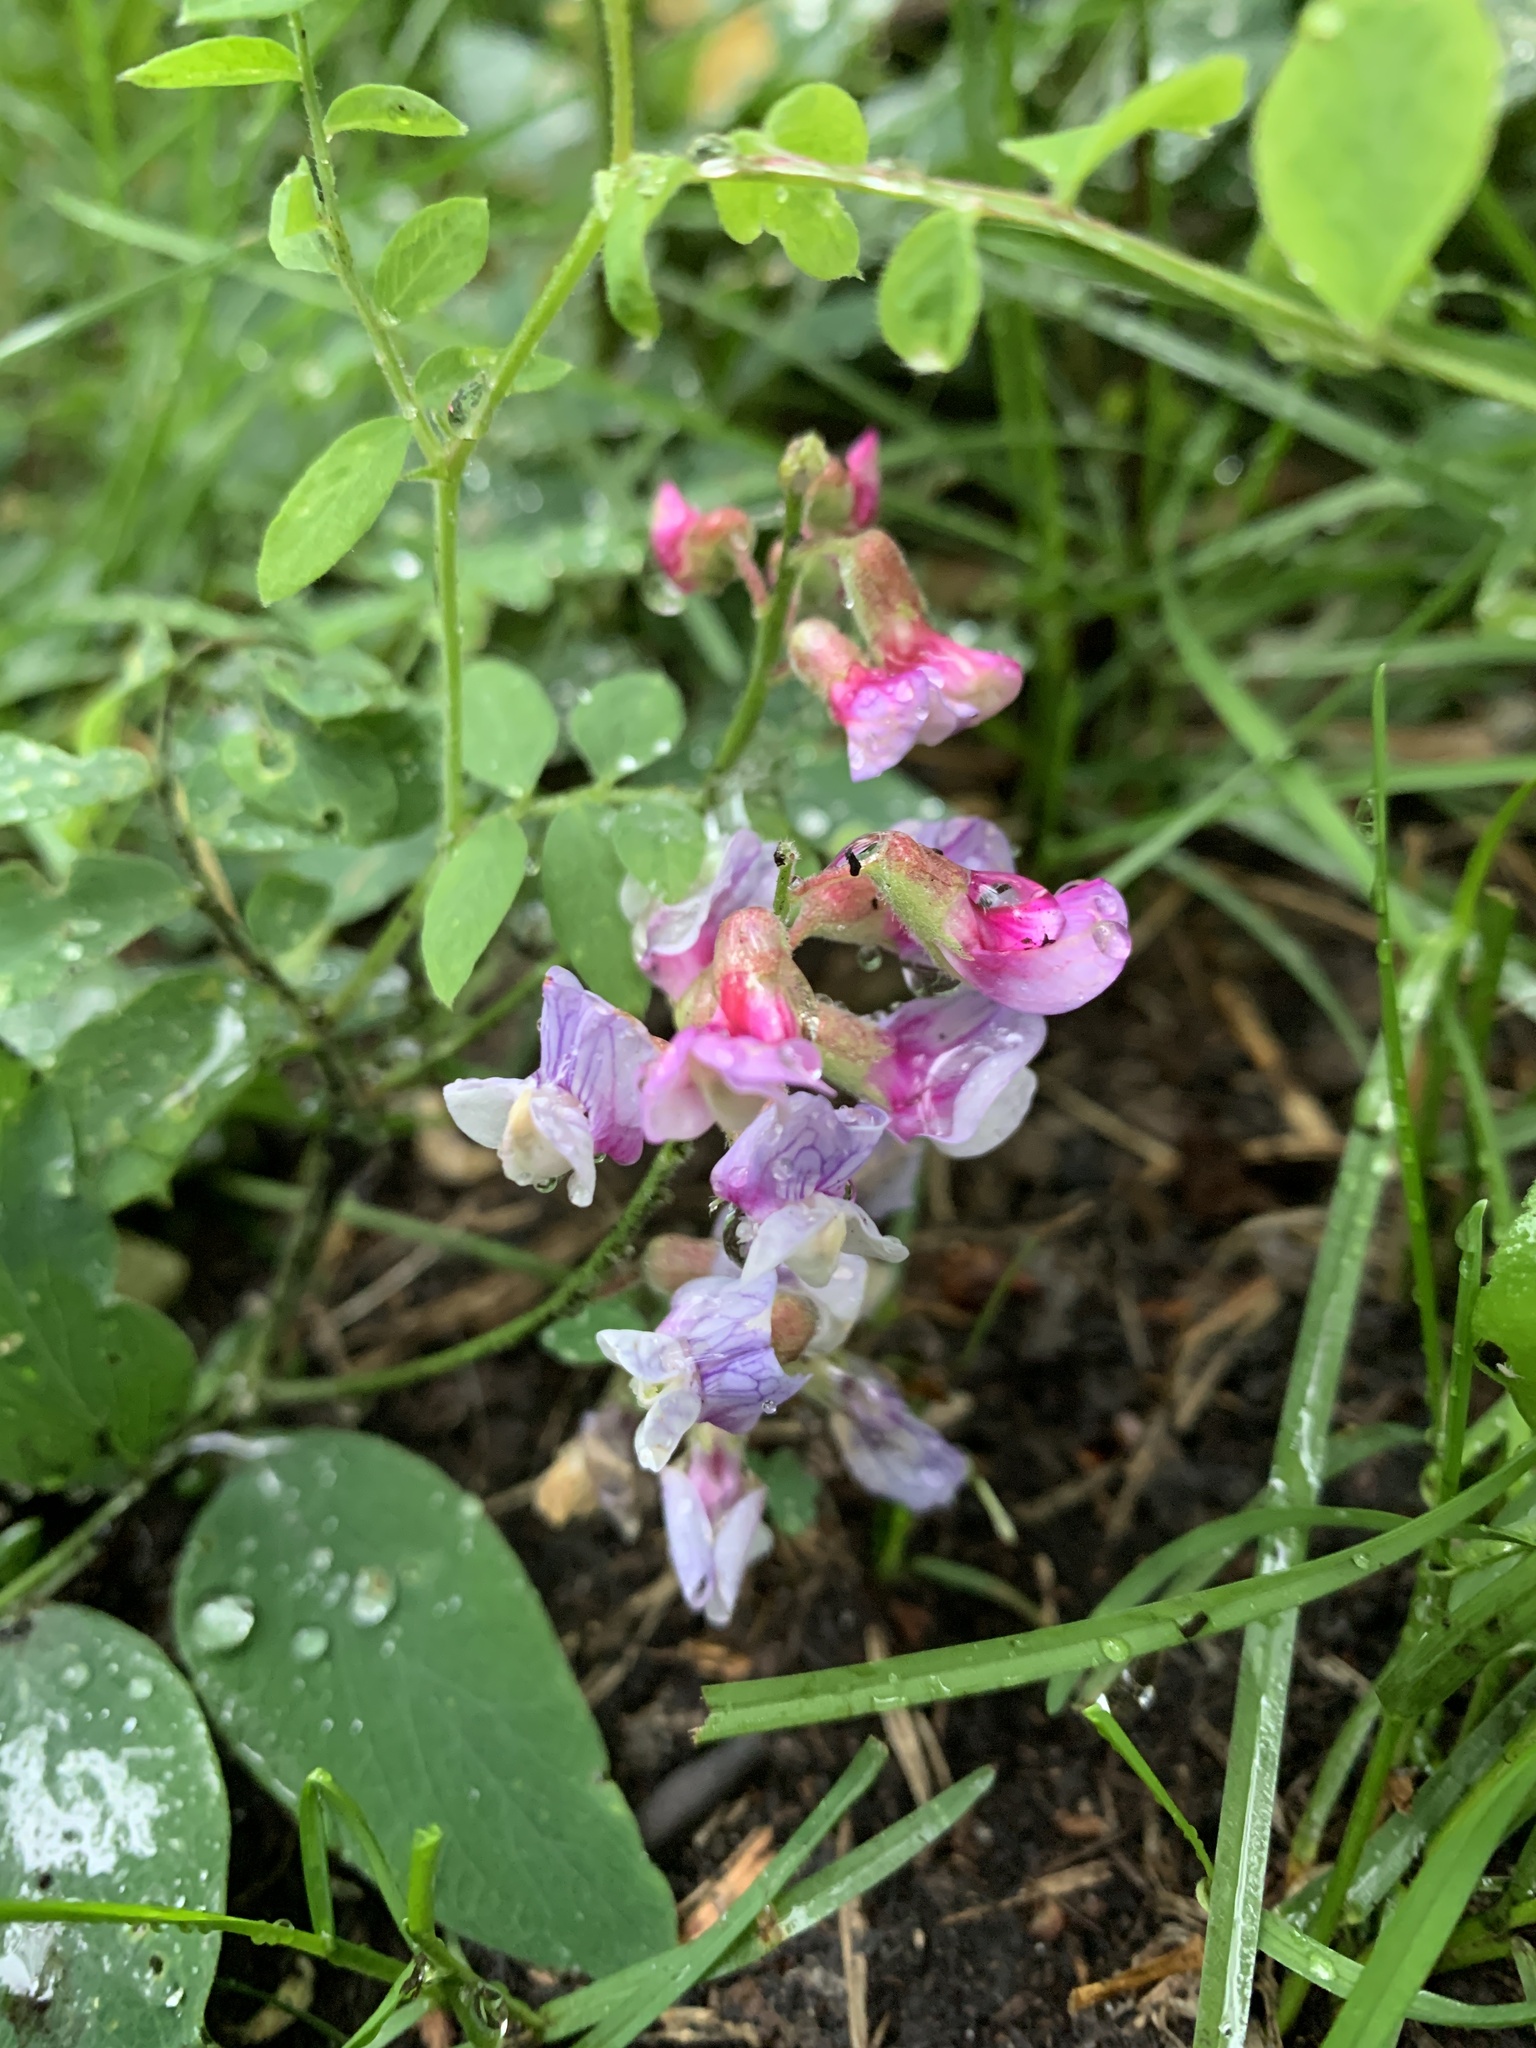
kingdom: Plantae
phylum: Tracheophyta
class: Magnoliopsida
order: Fabales
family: Fabaceae
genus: Lathyrus
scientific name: Lathyrus venosus
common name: Forest-pea
